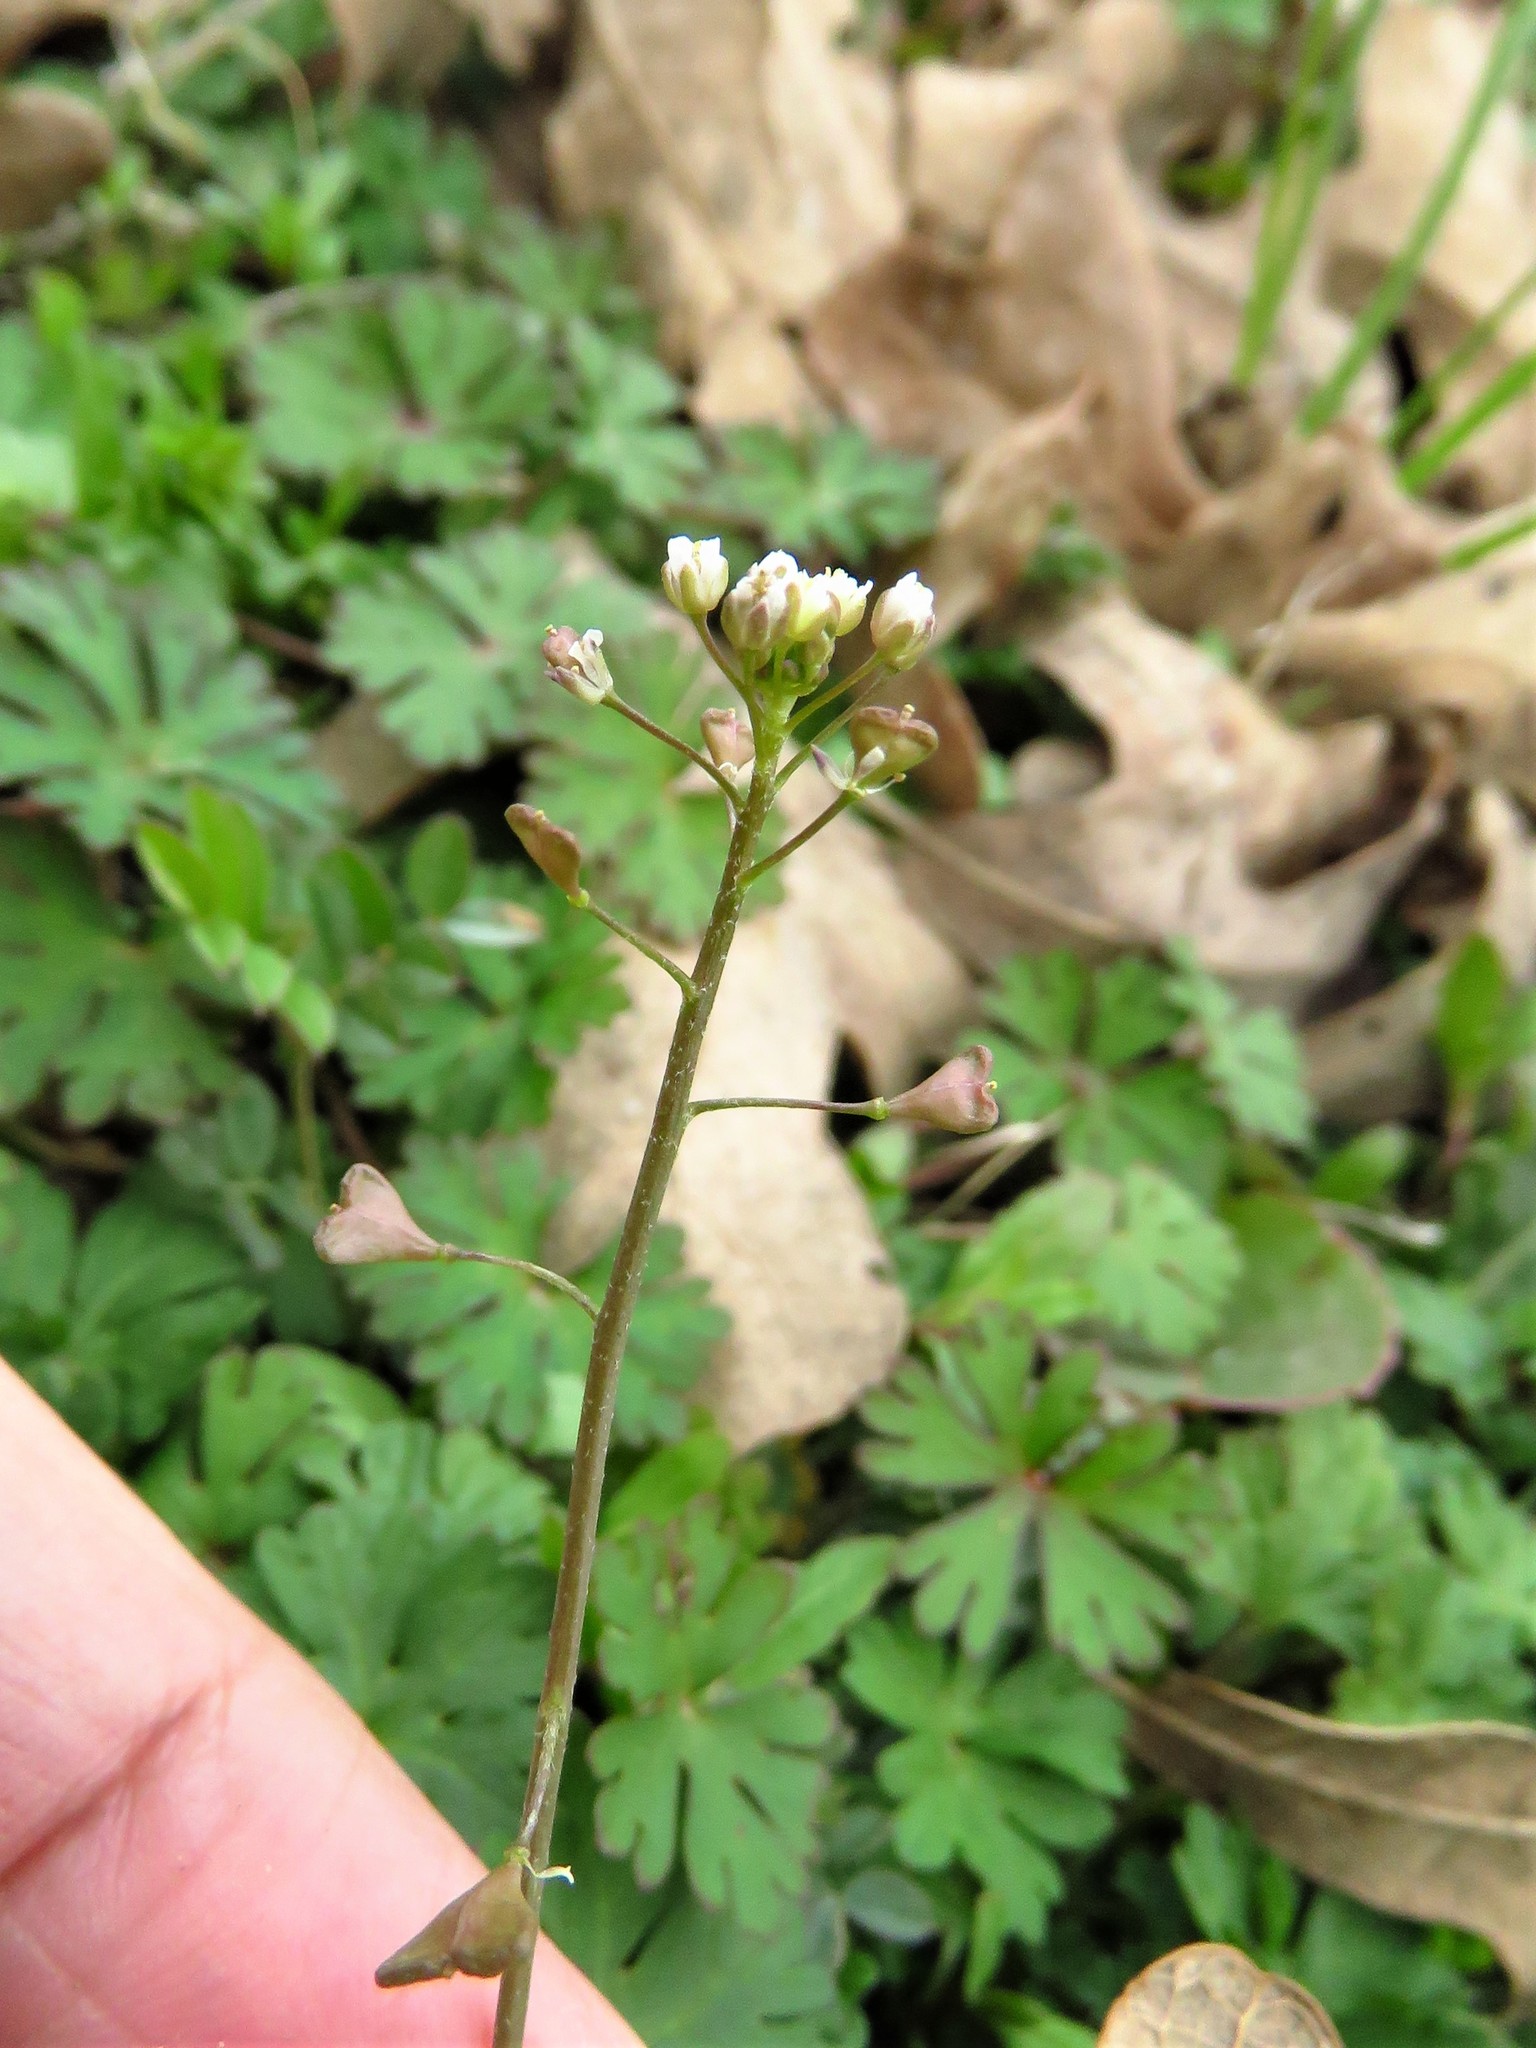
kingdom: Plantae
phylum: Tracheophyta
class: Magnoliopsida
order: Brassicales
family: Brassicaceae
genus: Capsella
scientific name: Capsella bursa-pastoris
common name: Shepherd's purse
